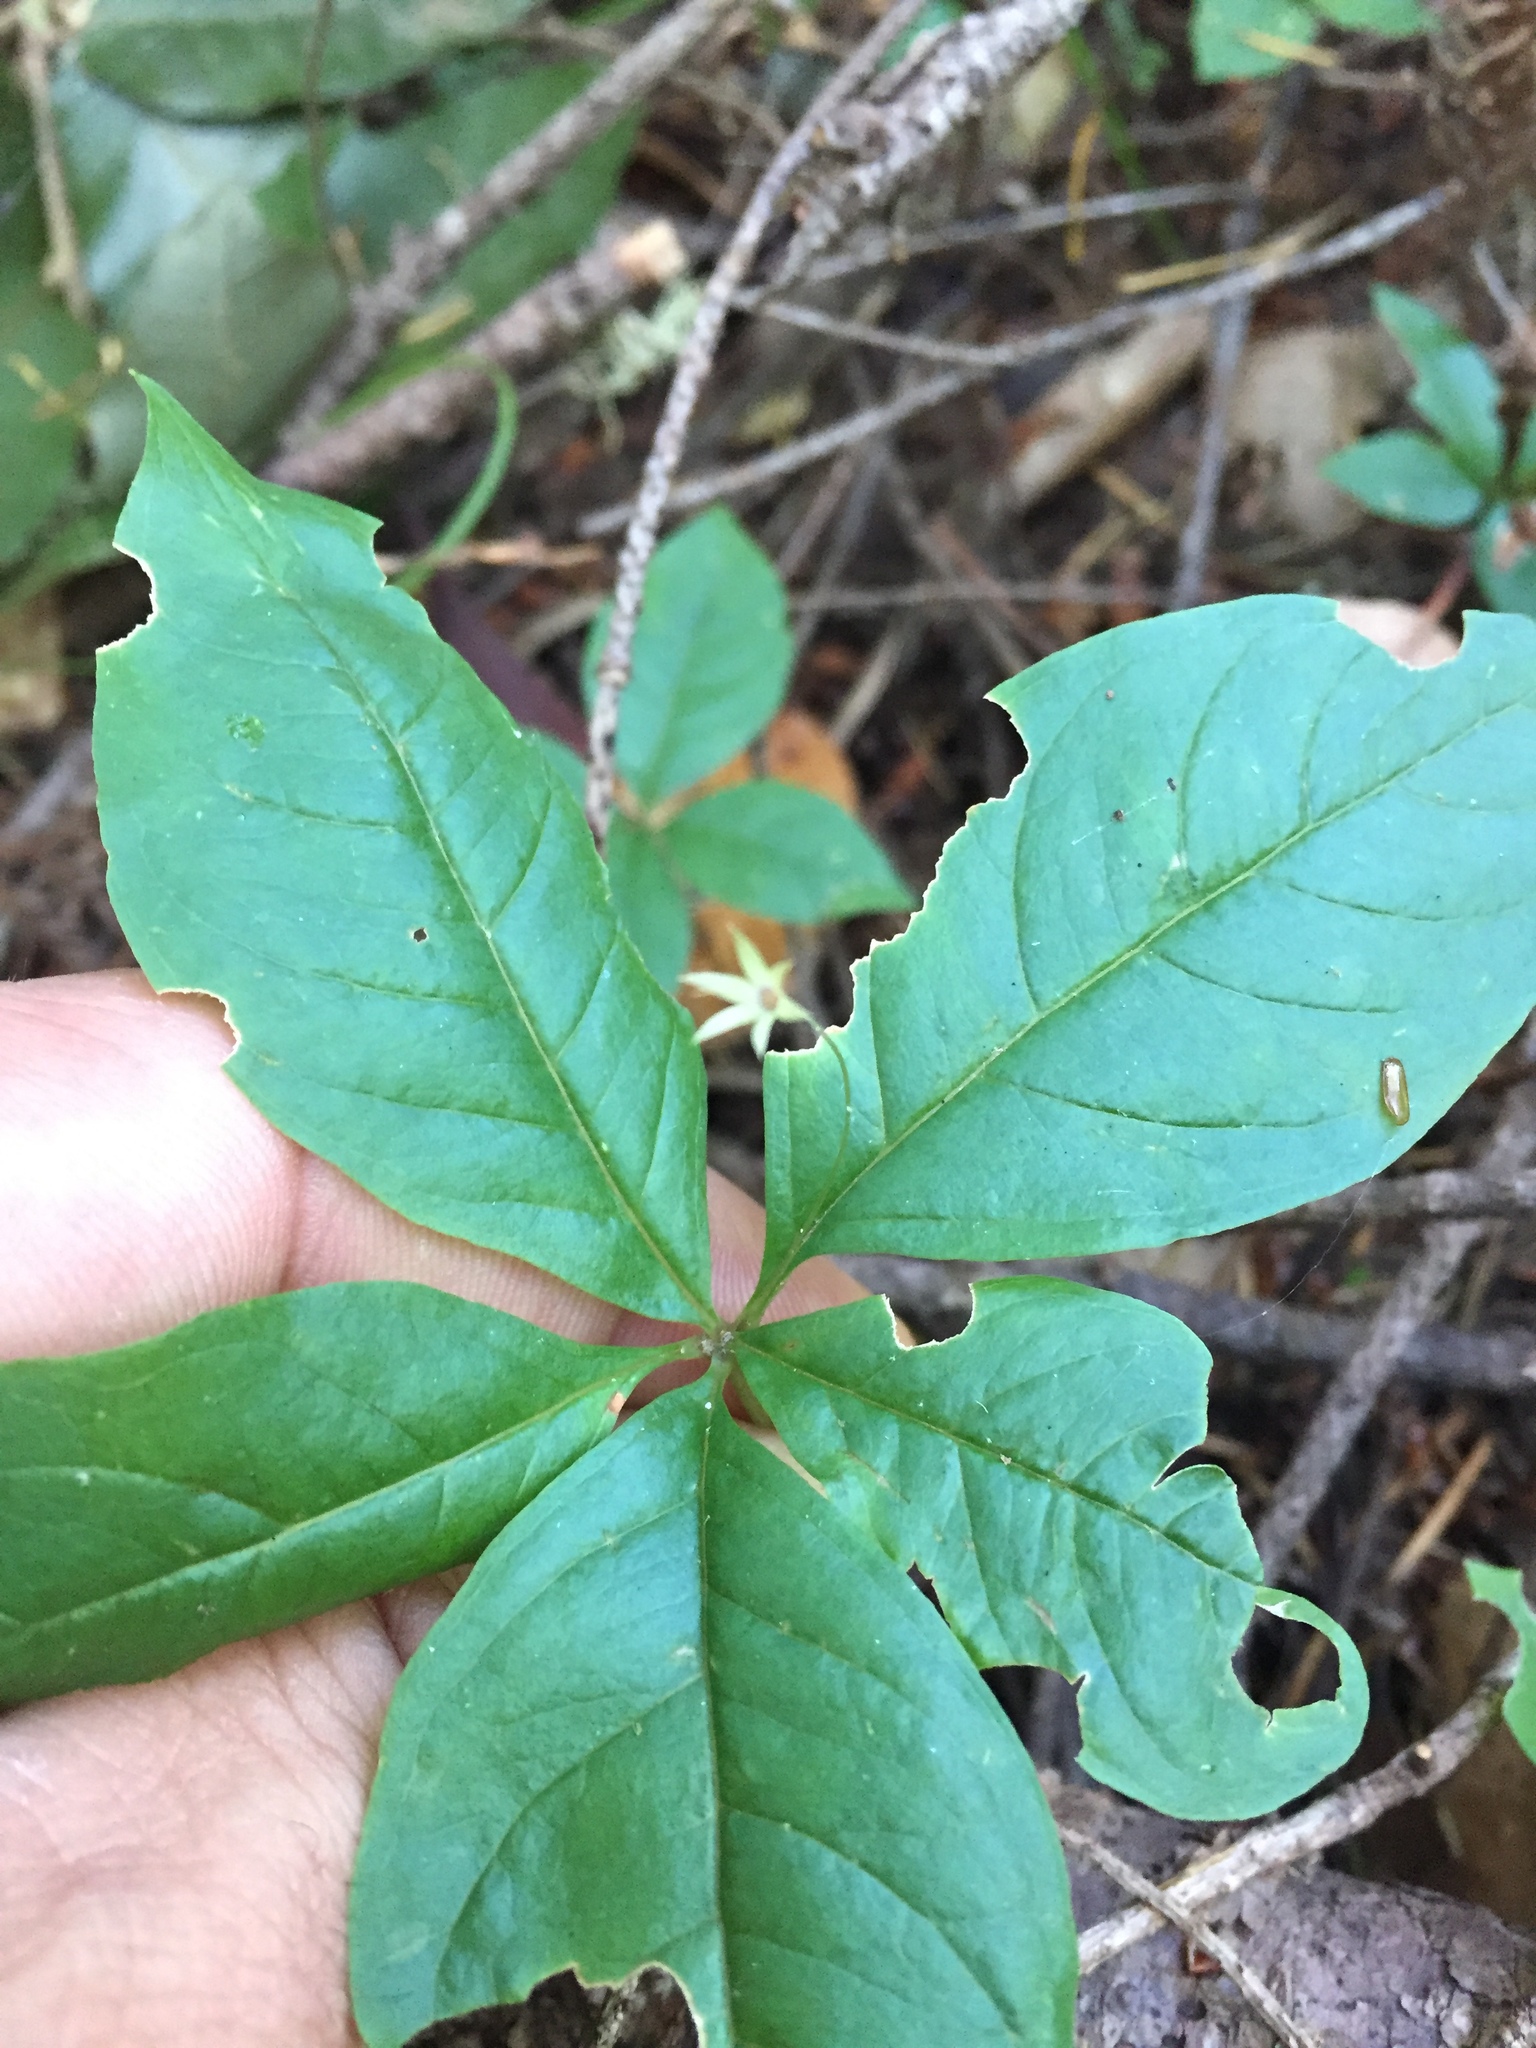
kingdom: Plantae
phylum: Tracheophyta
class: Magnoliopsida
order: Ericales
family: Primulaceae
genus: Lysimachia
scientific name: Lysimachia latifolia
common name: Pacific starflower
